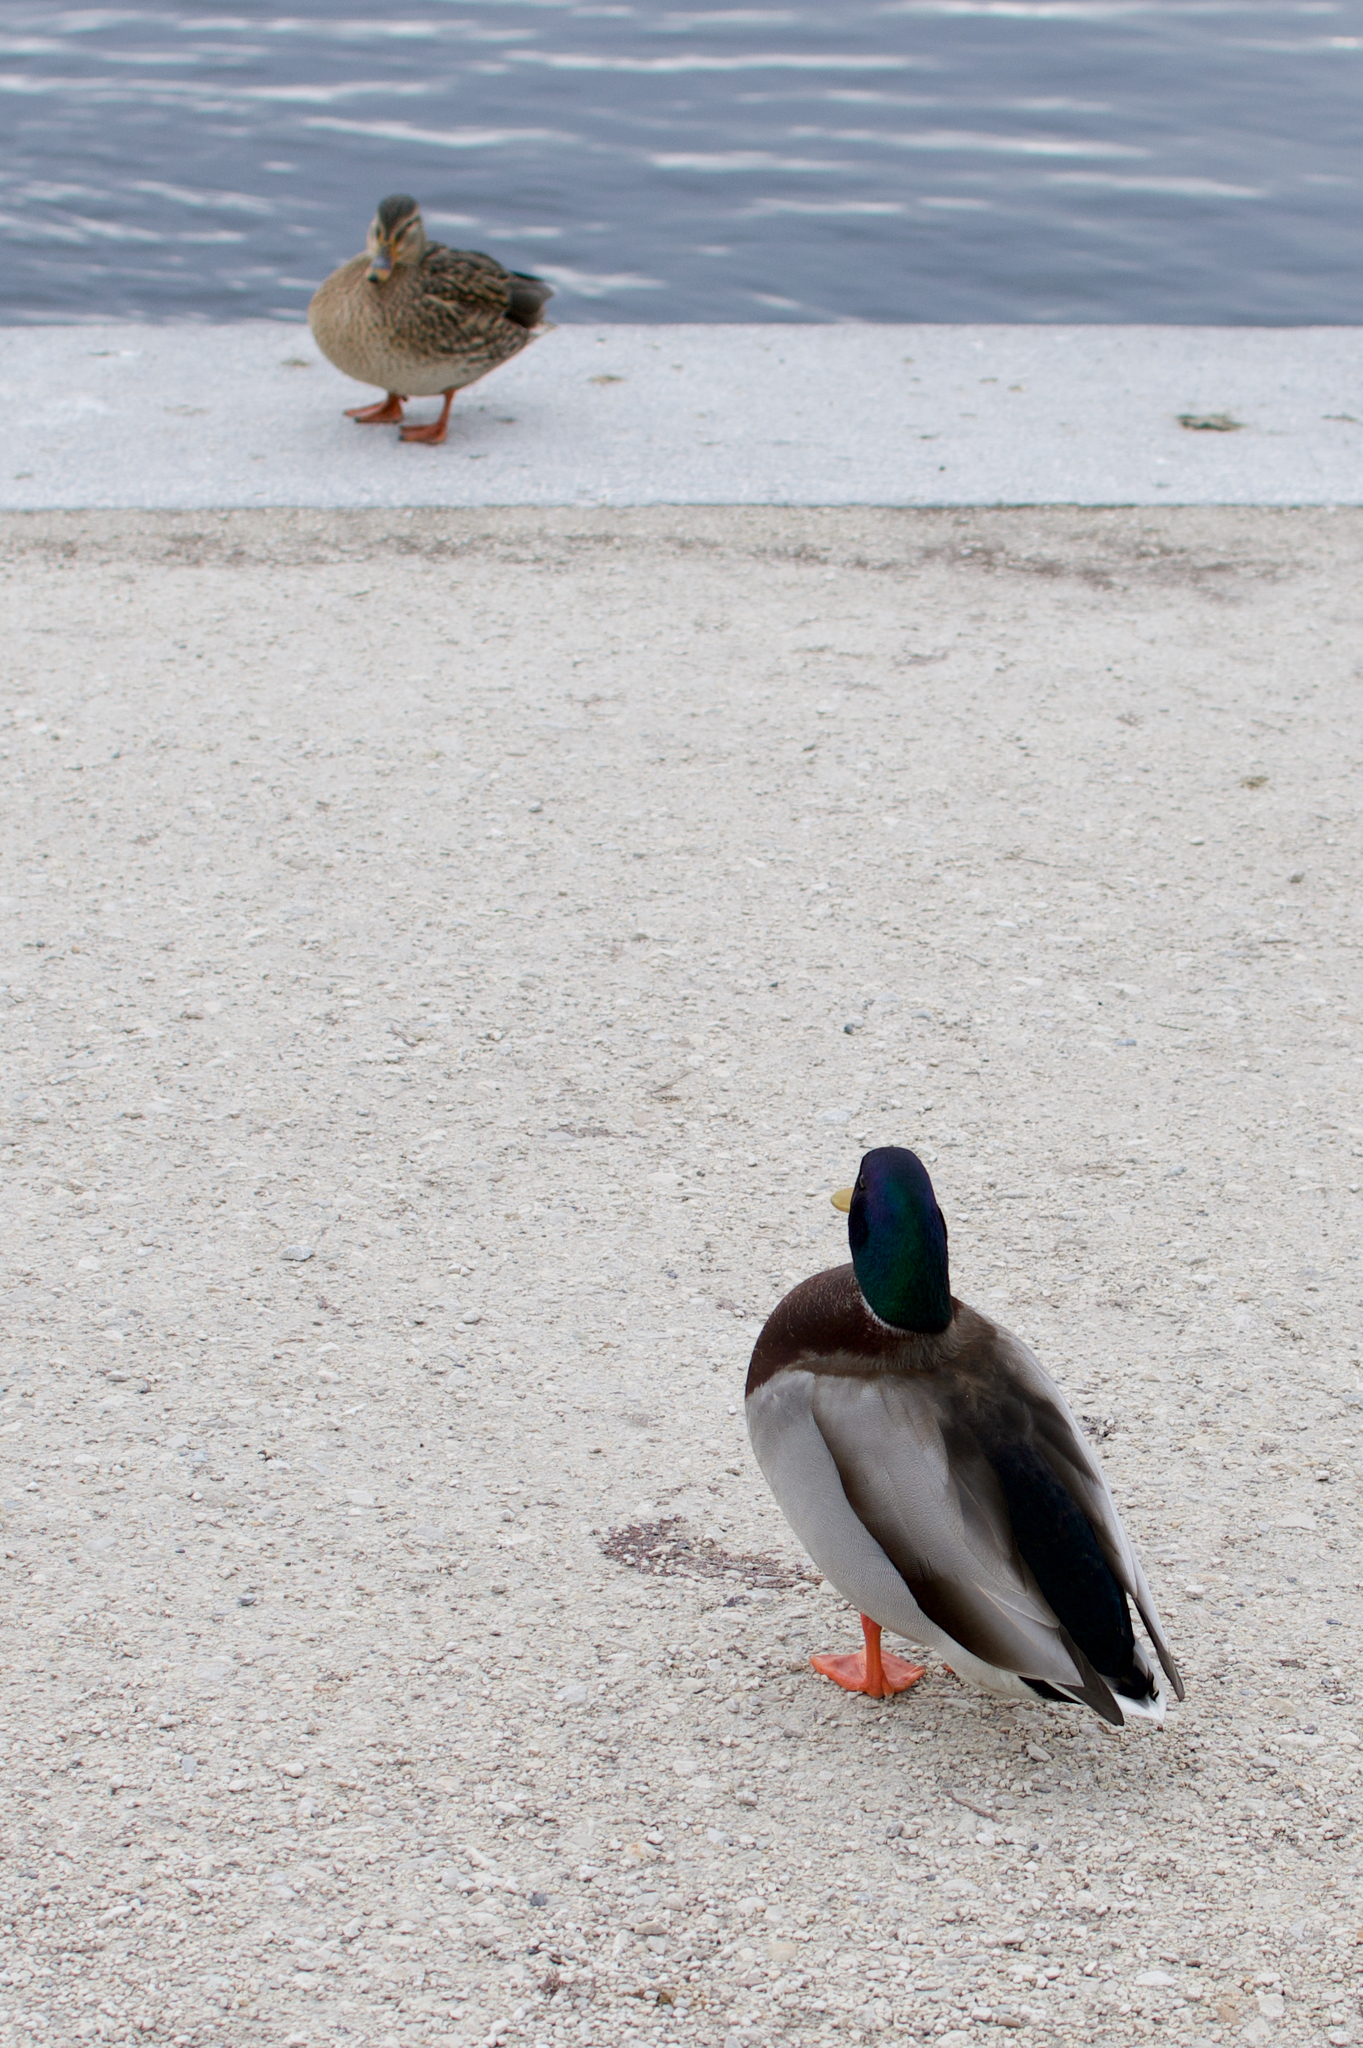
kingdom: Animalia
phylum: Chordata
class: Aves
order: Anseriformes
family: Anatidae
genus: Anas
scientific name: Anas platyrhynchos
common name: Mallard
